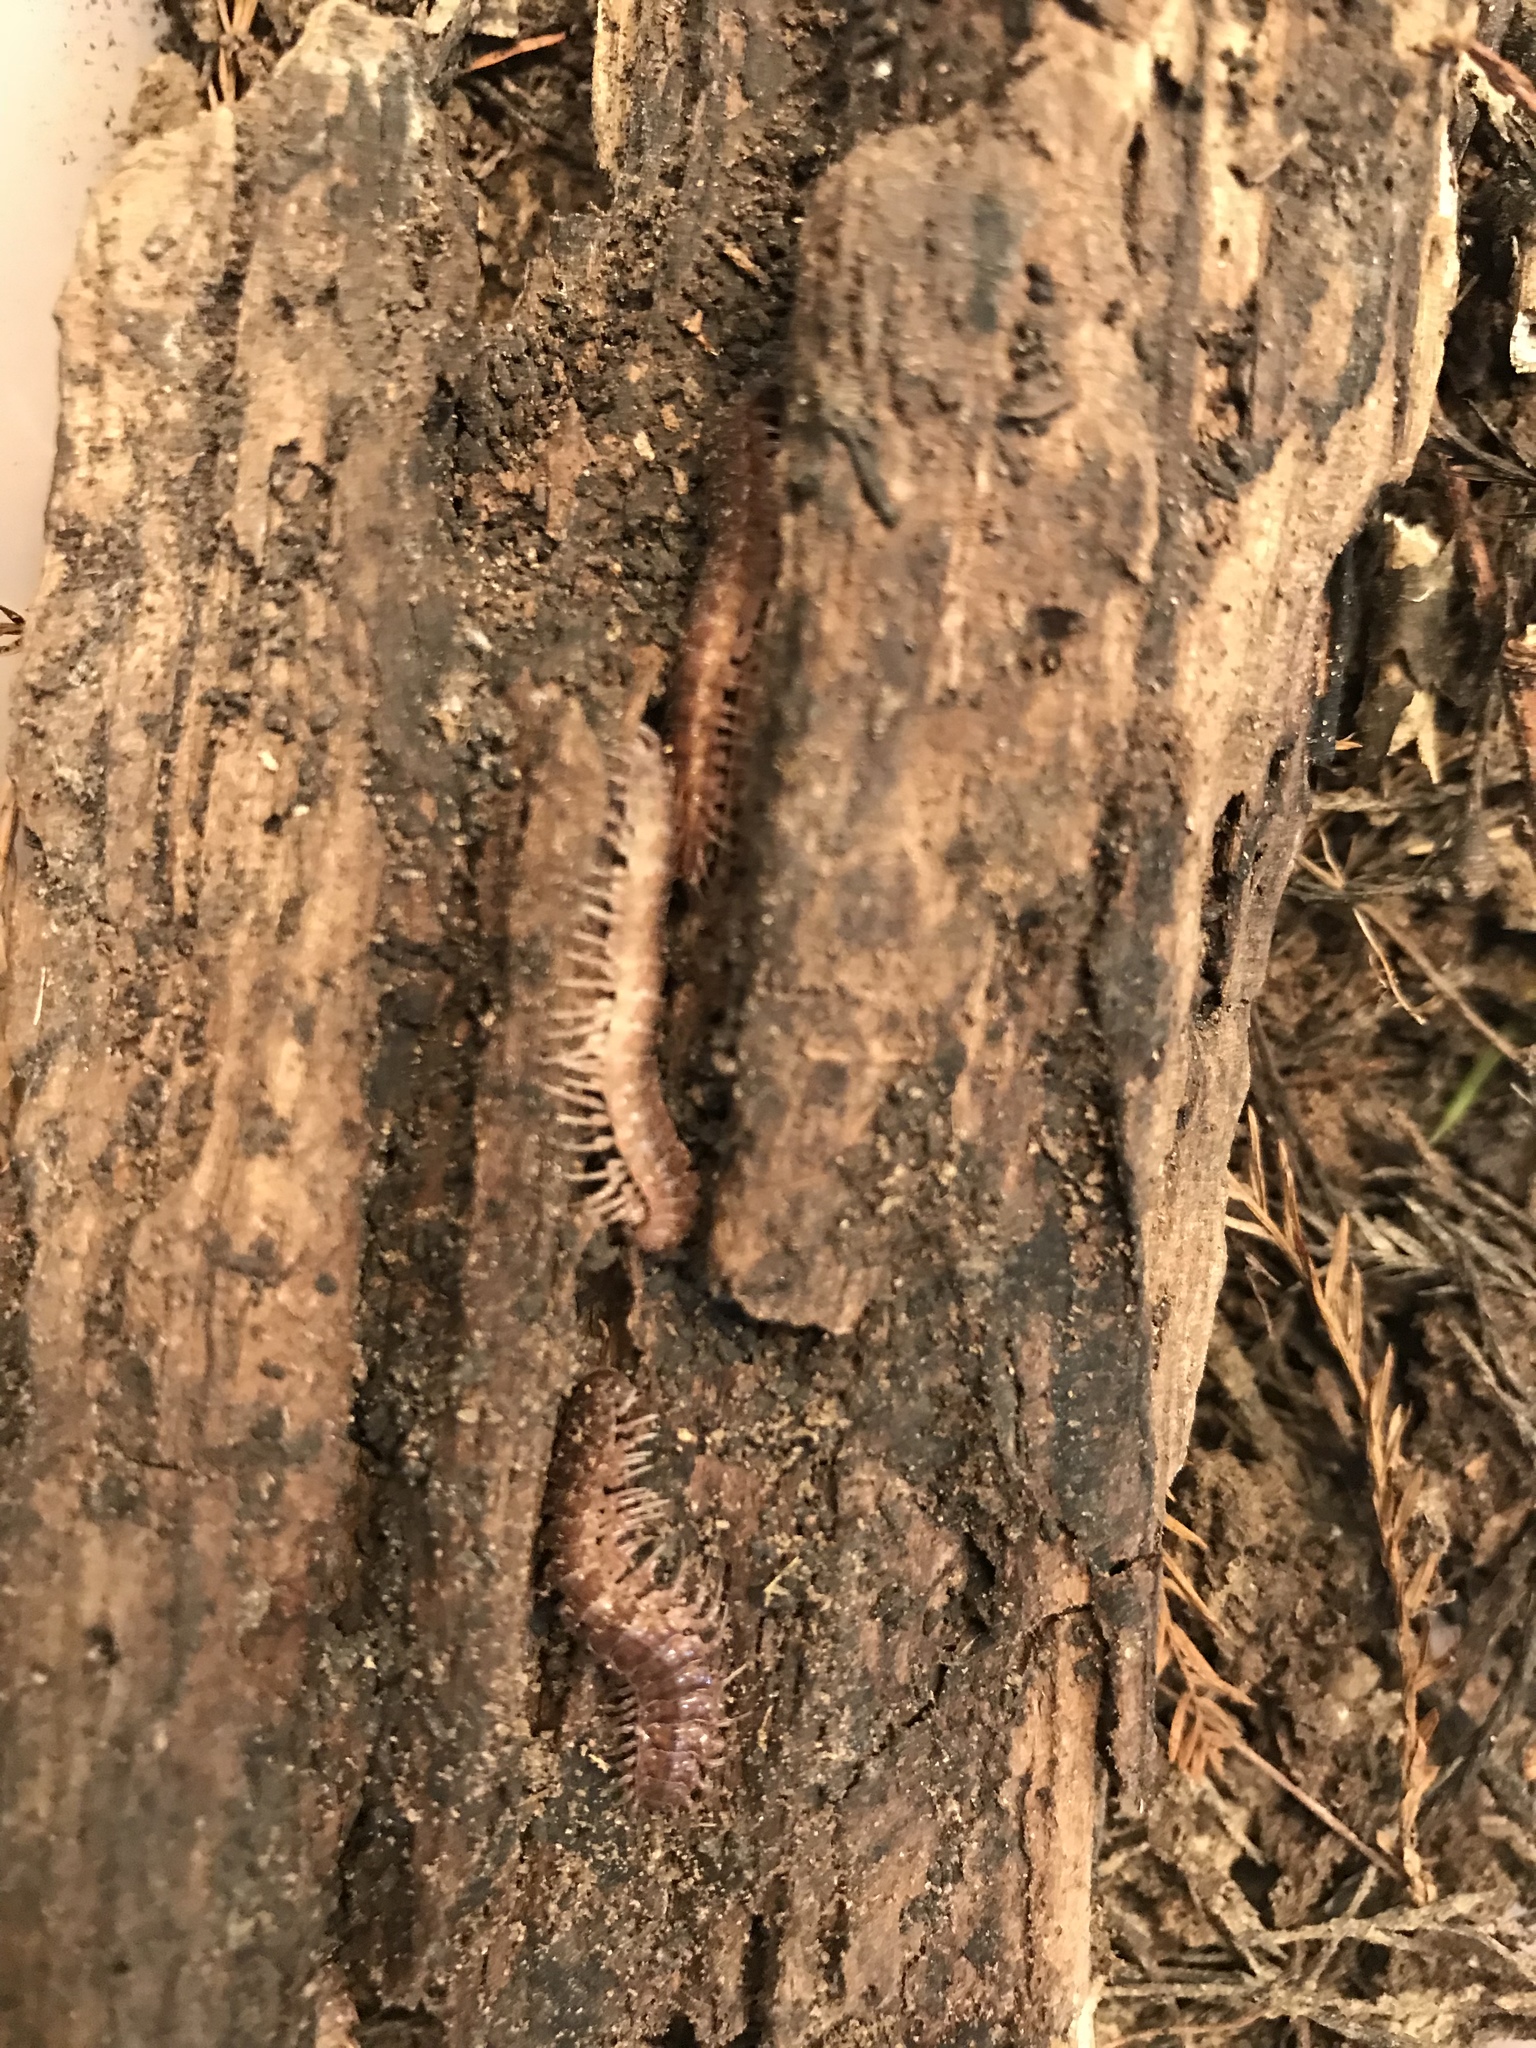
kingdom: Animalia
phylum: Arthropoda
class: Diplopoda
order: Polydesmida
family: Polydesmidae
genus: Pseudopolydesmus
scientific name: Pseudopolydesmus serratus
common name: Common pink flat-back millipede
